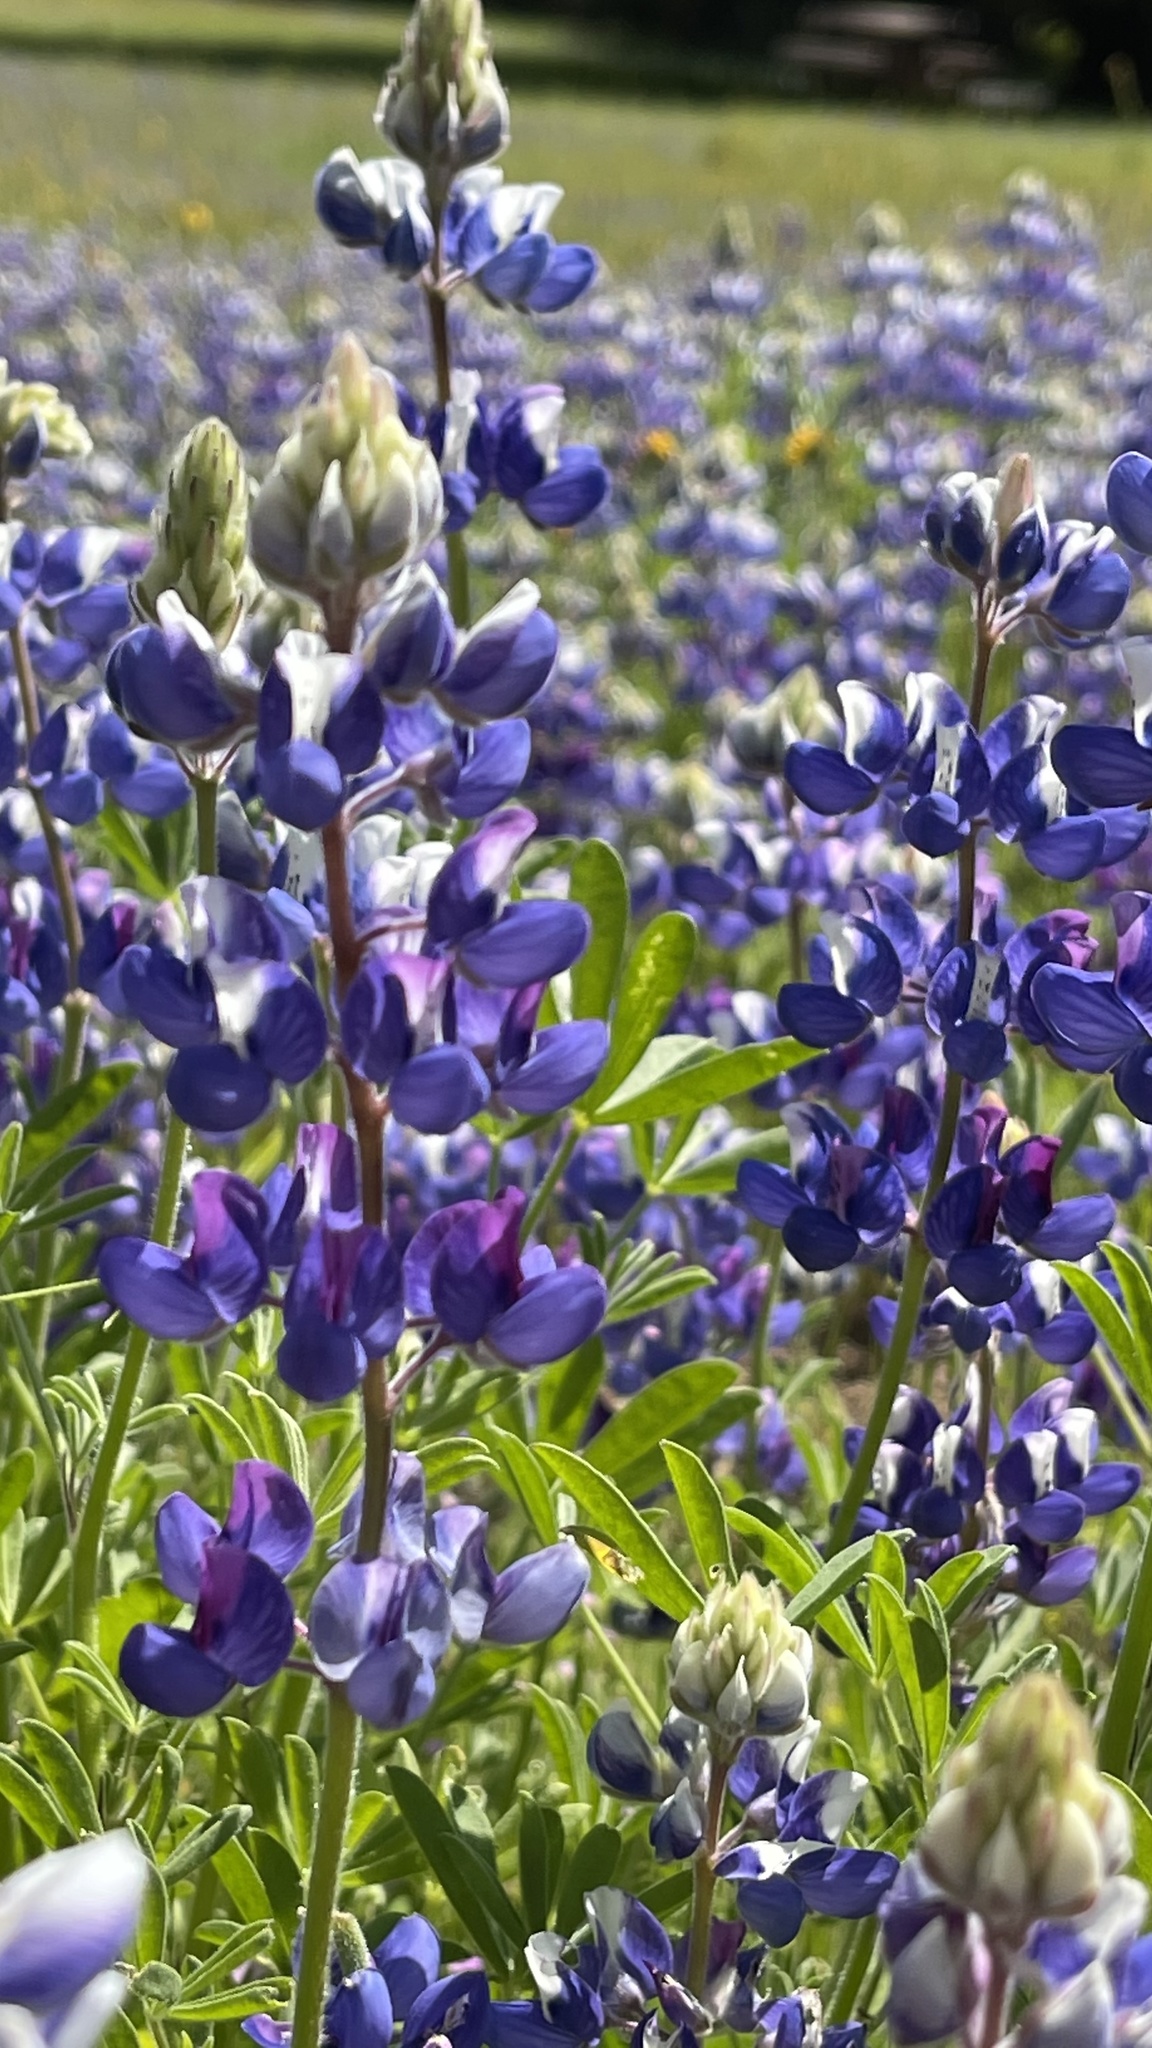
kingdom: Plantae
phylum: Tracheophyta
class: Magnoliopsida
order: Fabales
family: Fabaceae
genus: Lupinus
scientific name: Lupinus nanus
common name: Orean blue lupin
